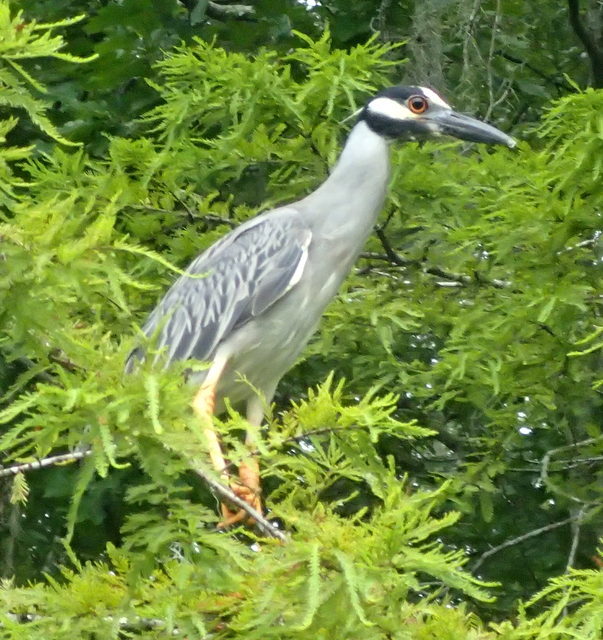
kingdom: Animalia
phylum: Chordata
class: Aves
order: Pelecaniformes
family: Ardeidae
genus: Nyctanassa
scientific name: Nyctanassa violacea
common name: Yellow-crowned night heron
